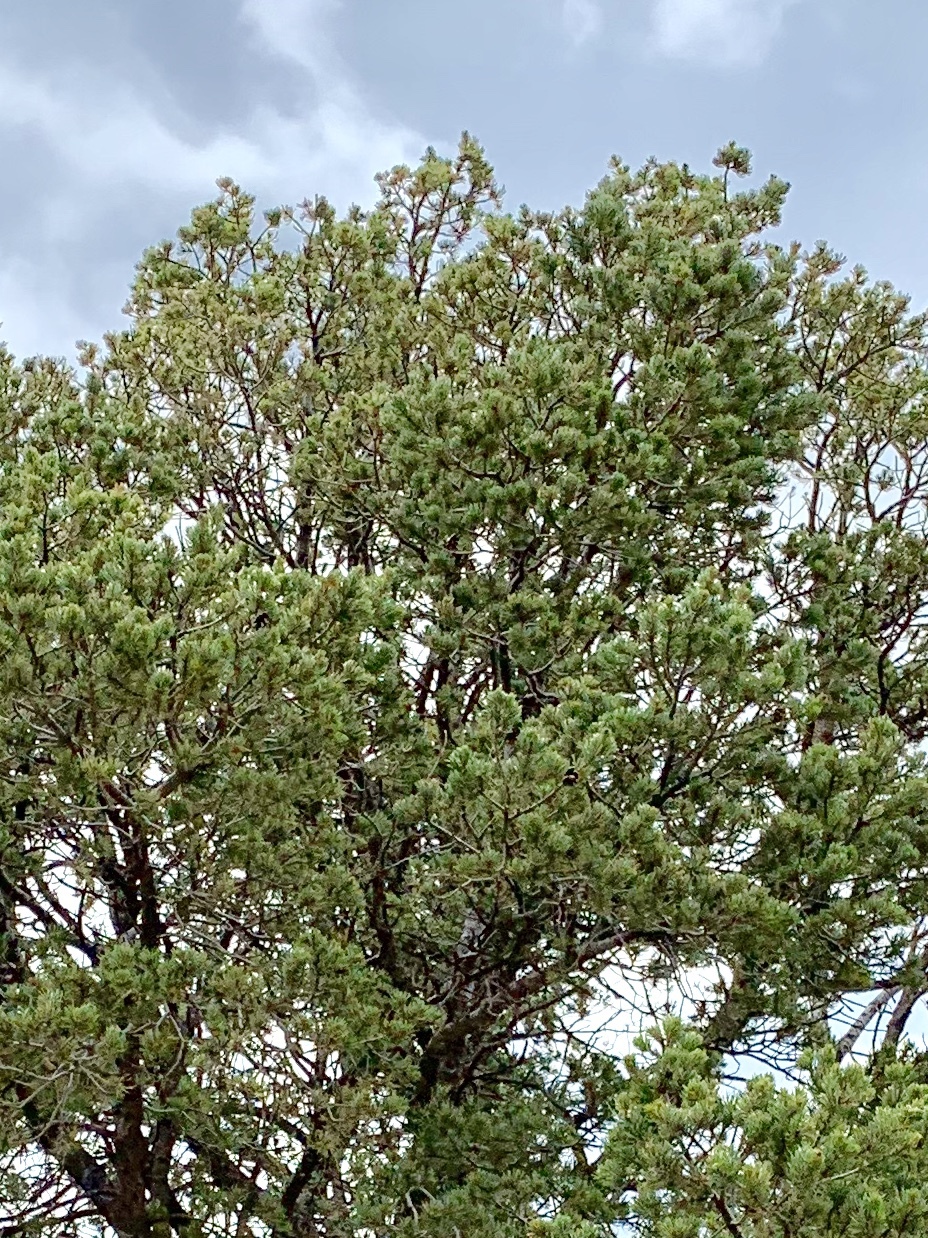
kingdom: Plantae
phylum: Tracheophyta
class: Pinopsida
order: Pinales
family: Pinaceae
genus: Pinus
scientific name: Pinus edulis
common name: Colorado pinyon
